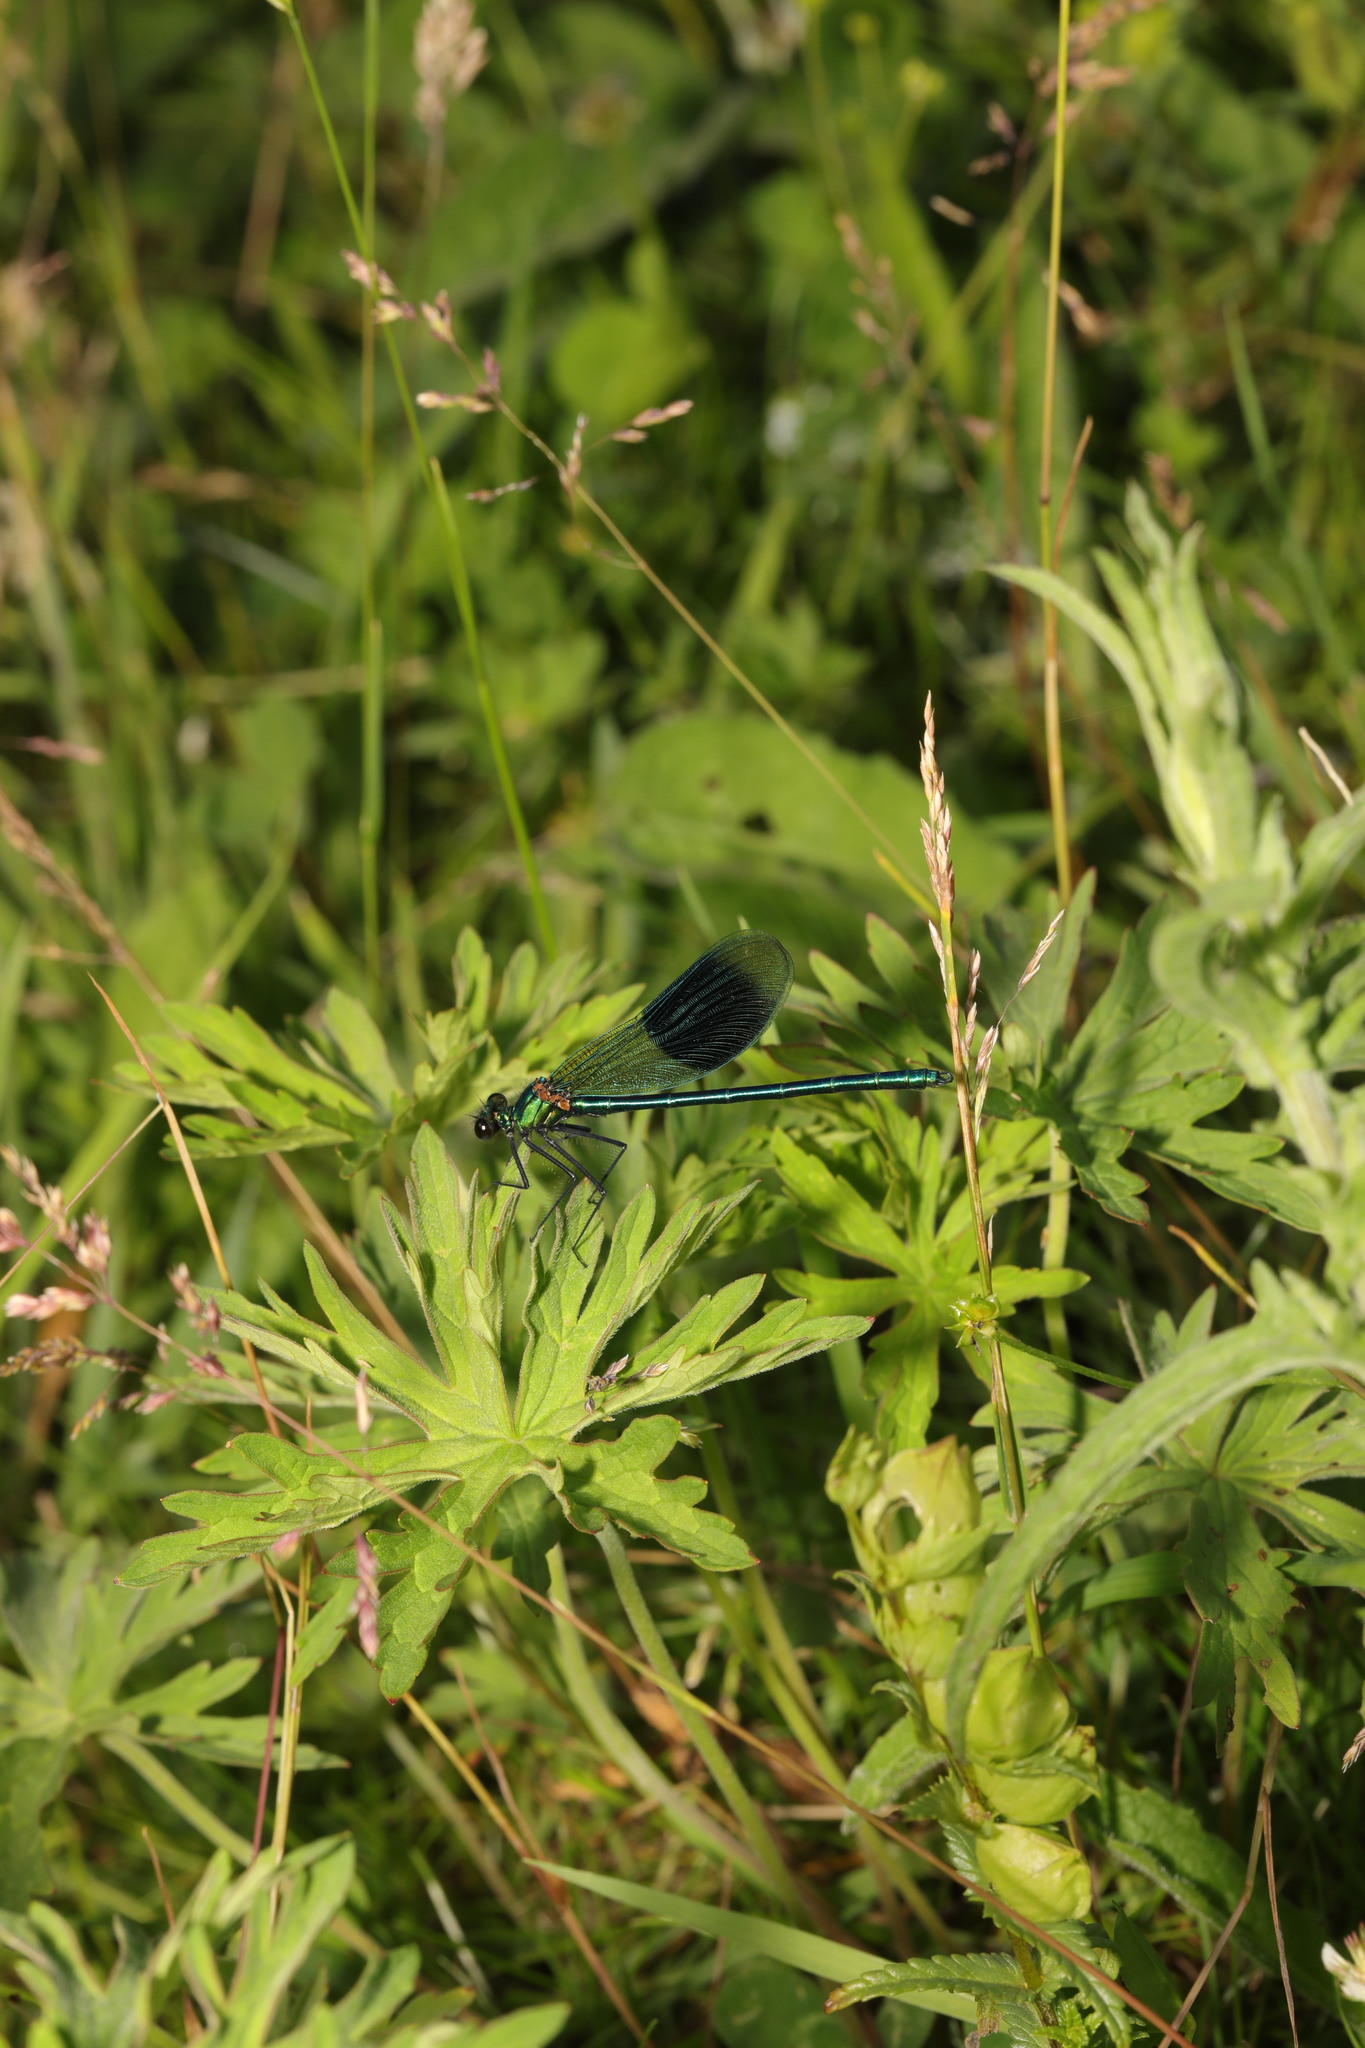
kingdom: Animalia
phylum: Arthropoda
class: Insecta
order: Odonata
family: Calopterygidae
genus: Calopteryx
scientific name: Calopteryx splendens
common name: Banded demoiselle
